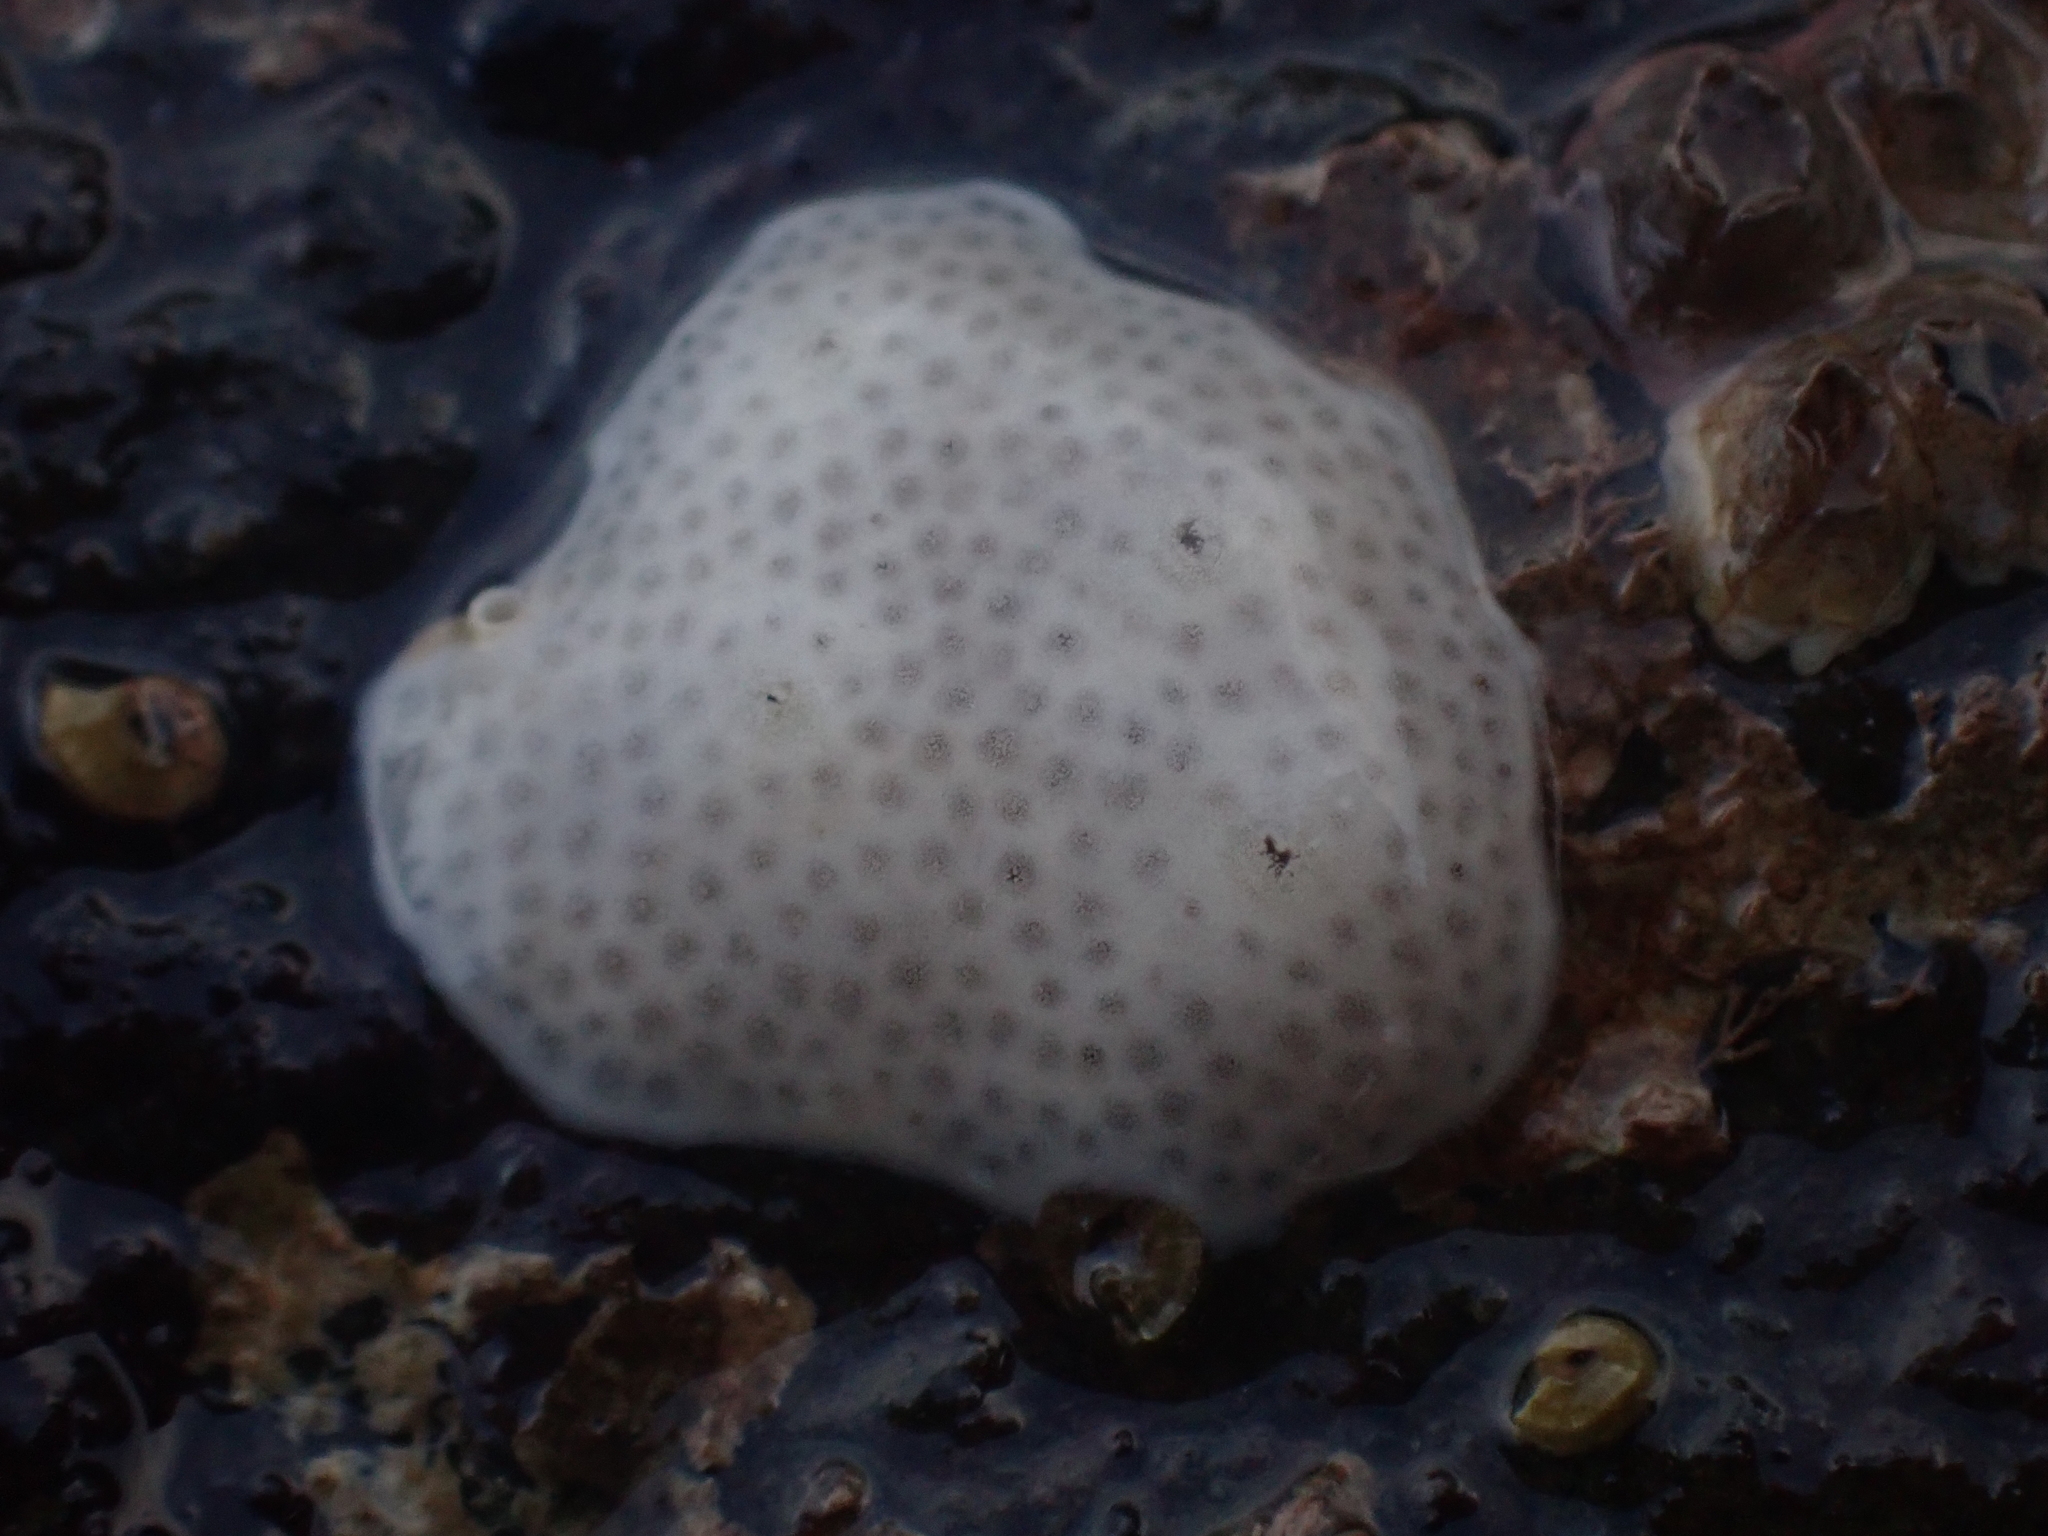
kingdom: Animalia
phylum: Chordata
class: Ascidiacea
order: Aplousobranchia
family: Didemnidae
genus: Didemnum
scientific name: Didemnum albidum
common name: Northern white crust
